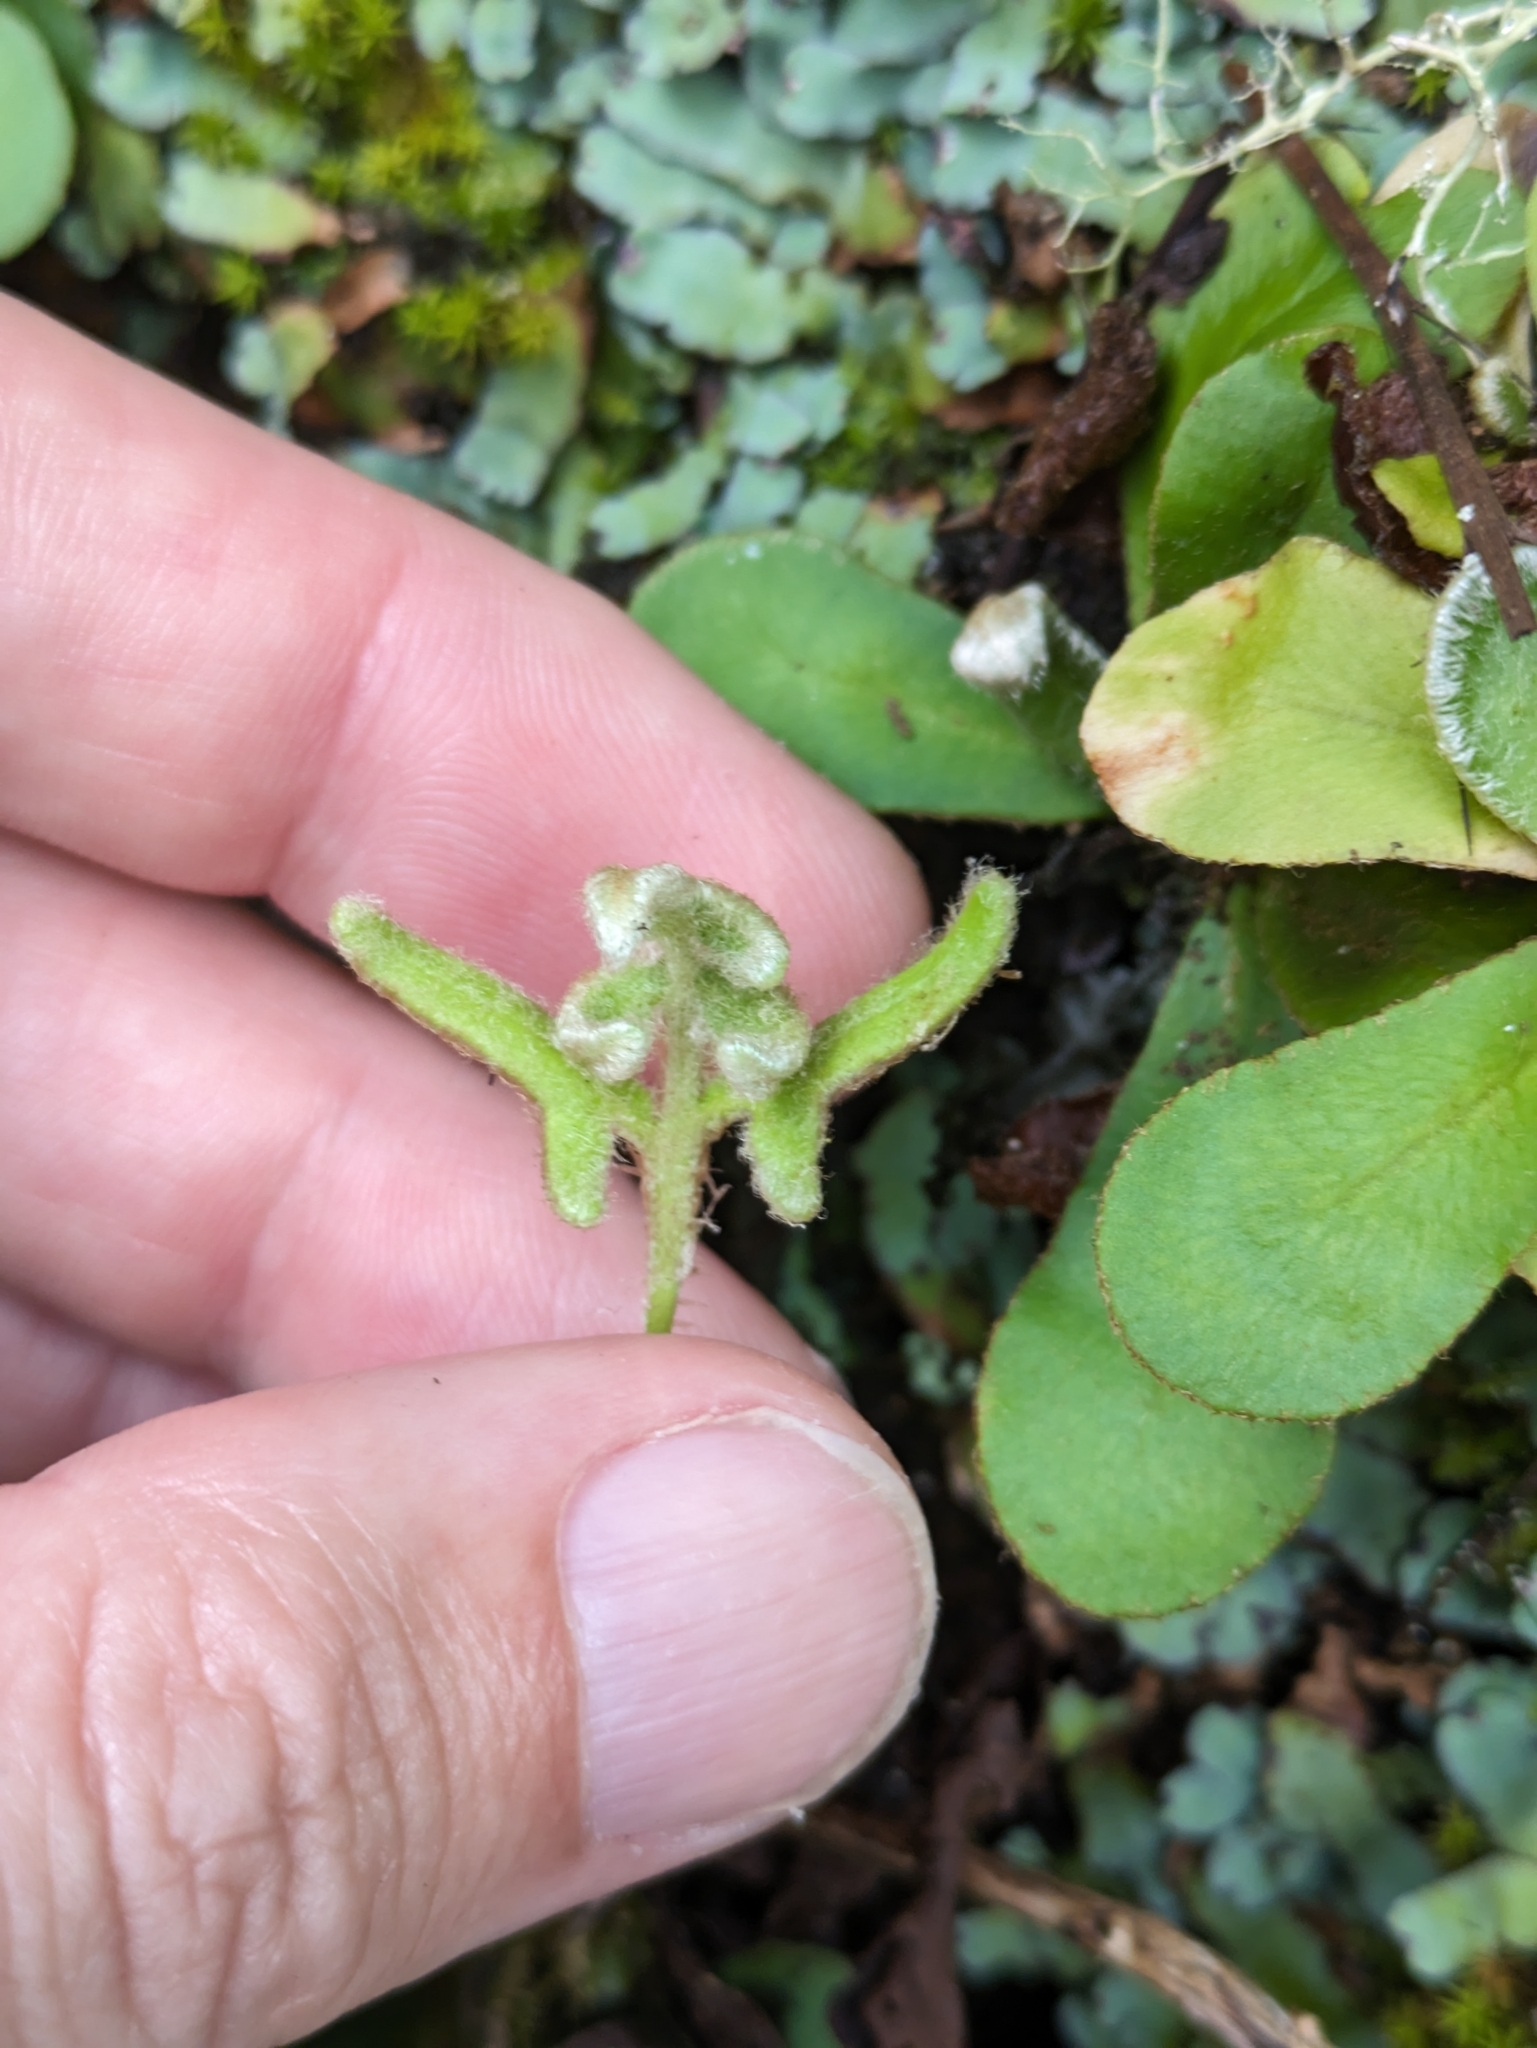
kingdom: Plantae
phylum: Tracheophyta
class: Polypodiopsida
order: Polypodiales
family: Pteridaceae
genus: Trachypteris
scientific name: Trachypteris pinnata
